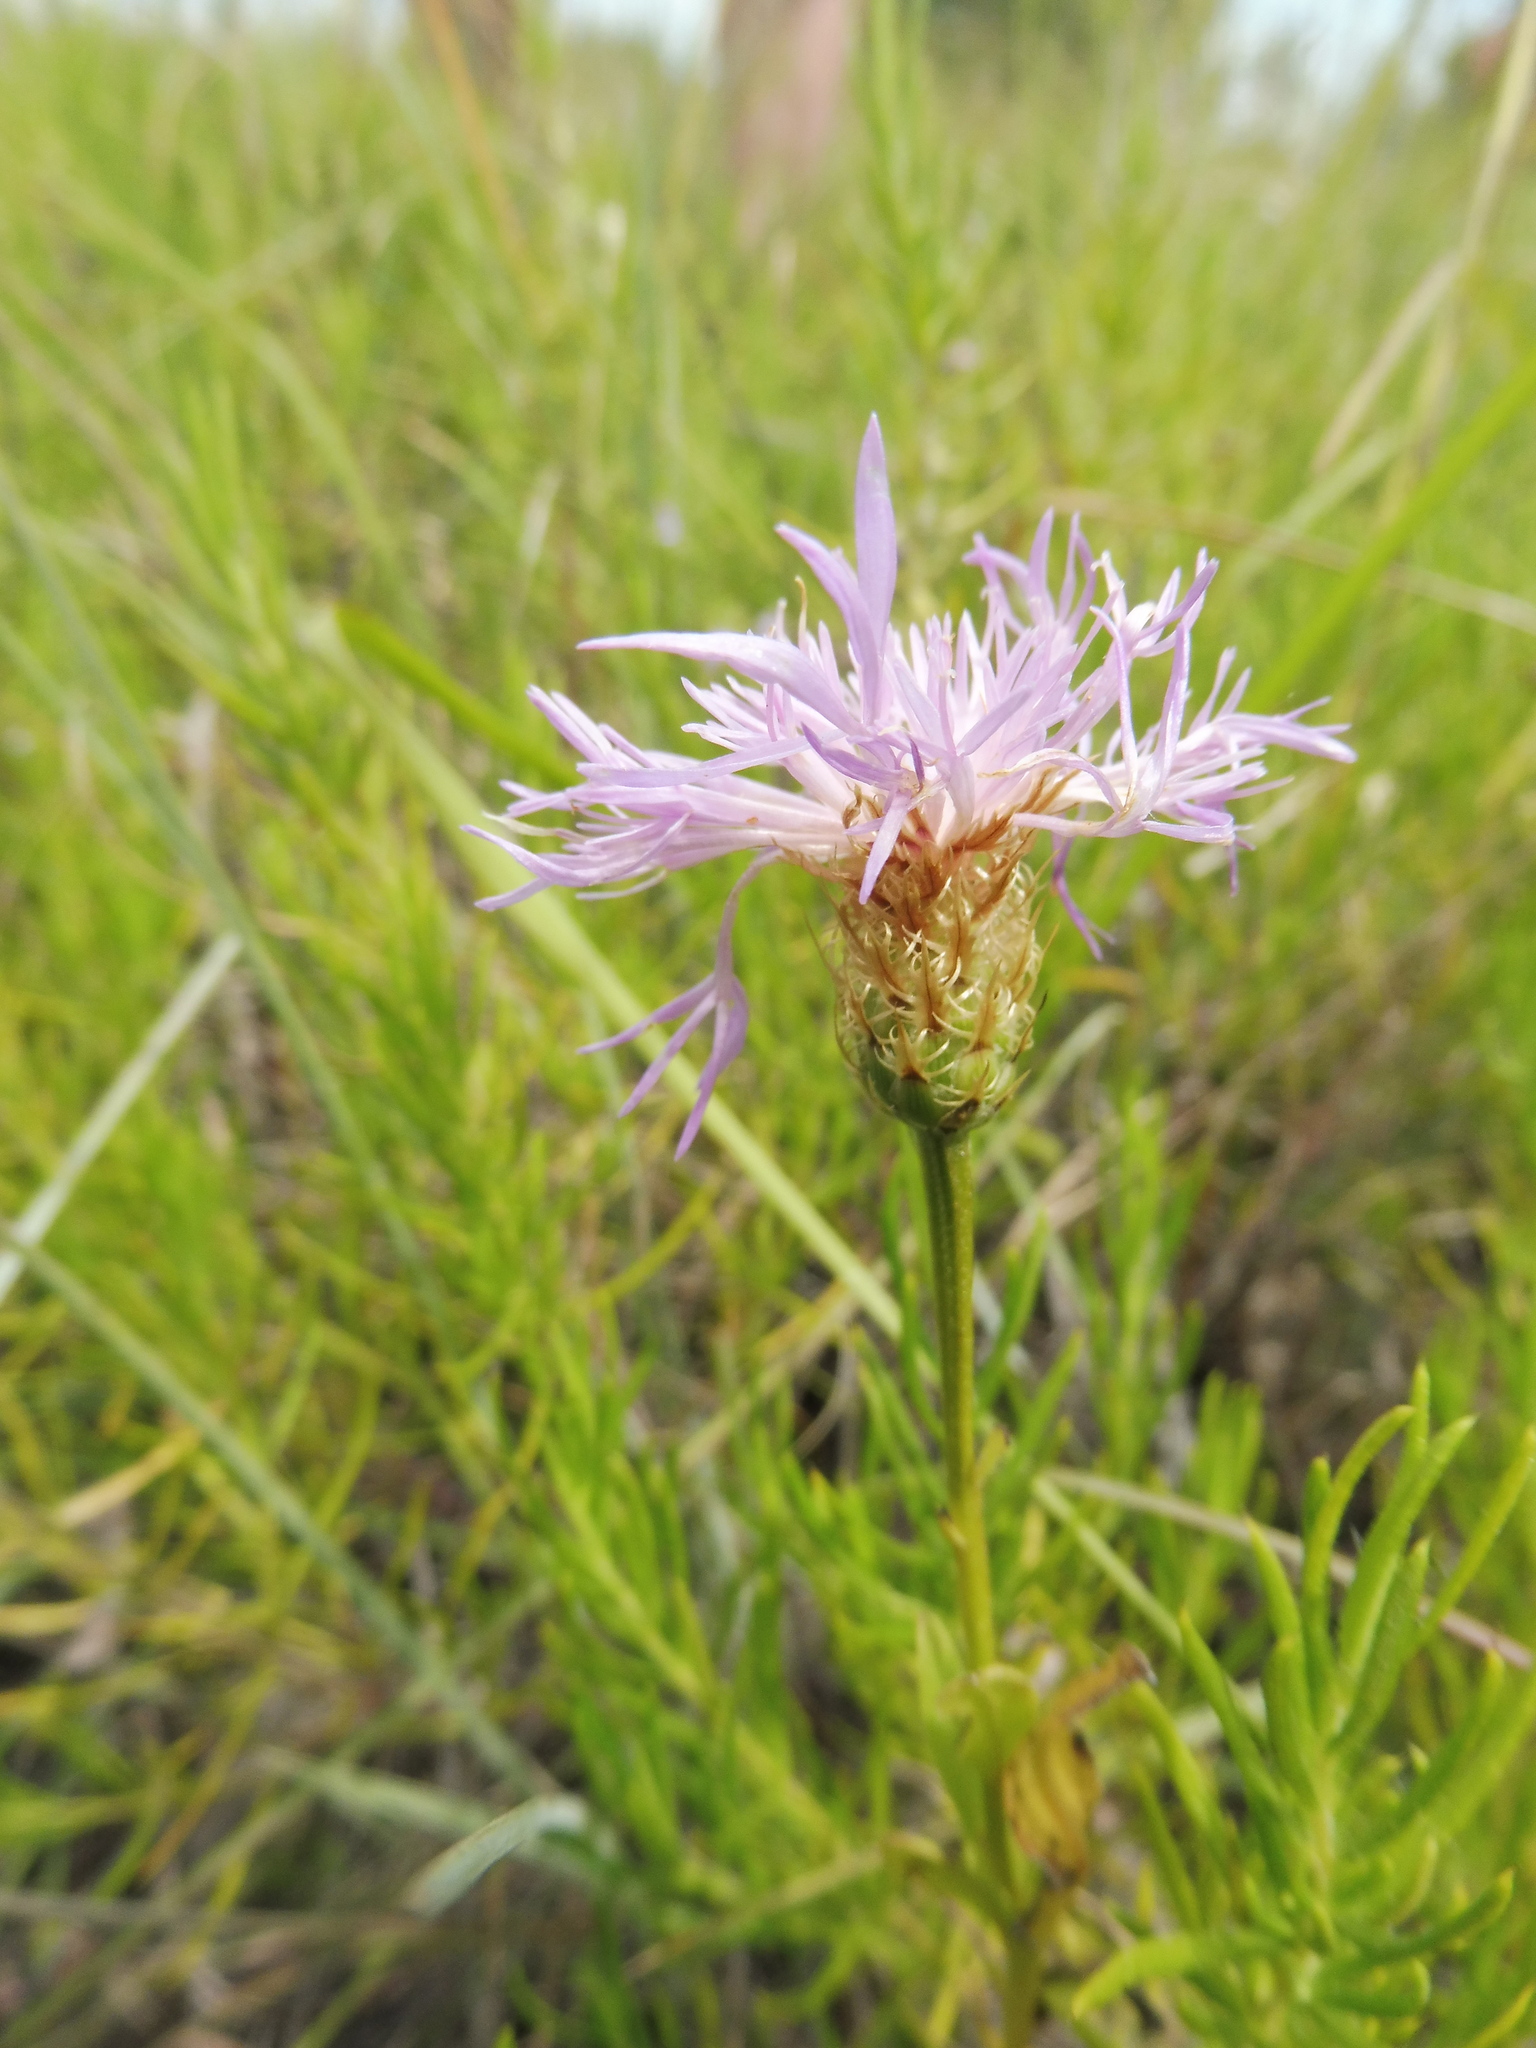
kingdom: Plantae
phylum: Tracheophyta
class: Magnoliopsida
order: Asterales
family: Asteraceae
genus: Plectocephalus
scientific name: Plectocephalus americanus
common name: American basket-flower
